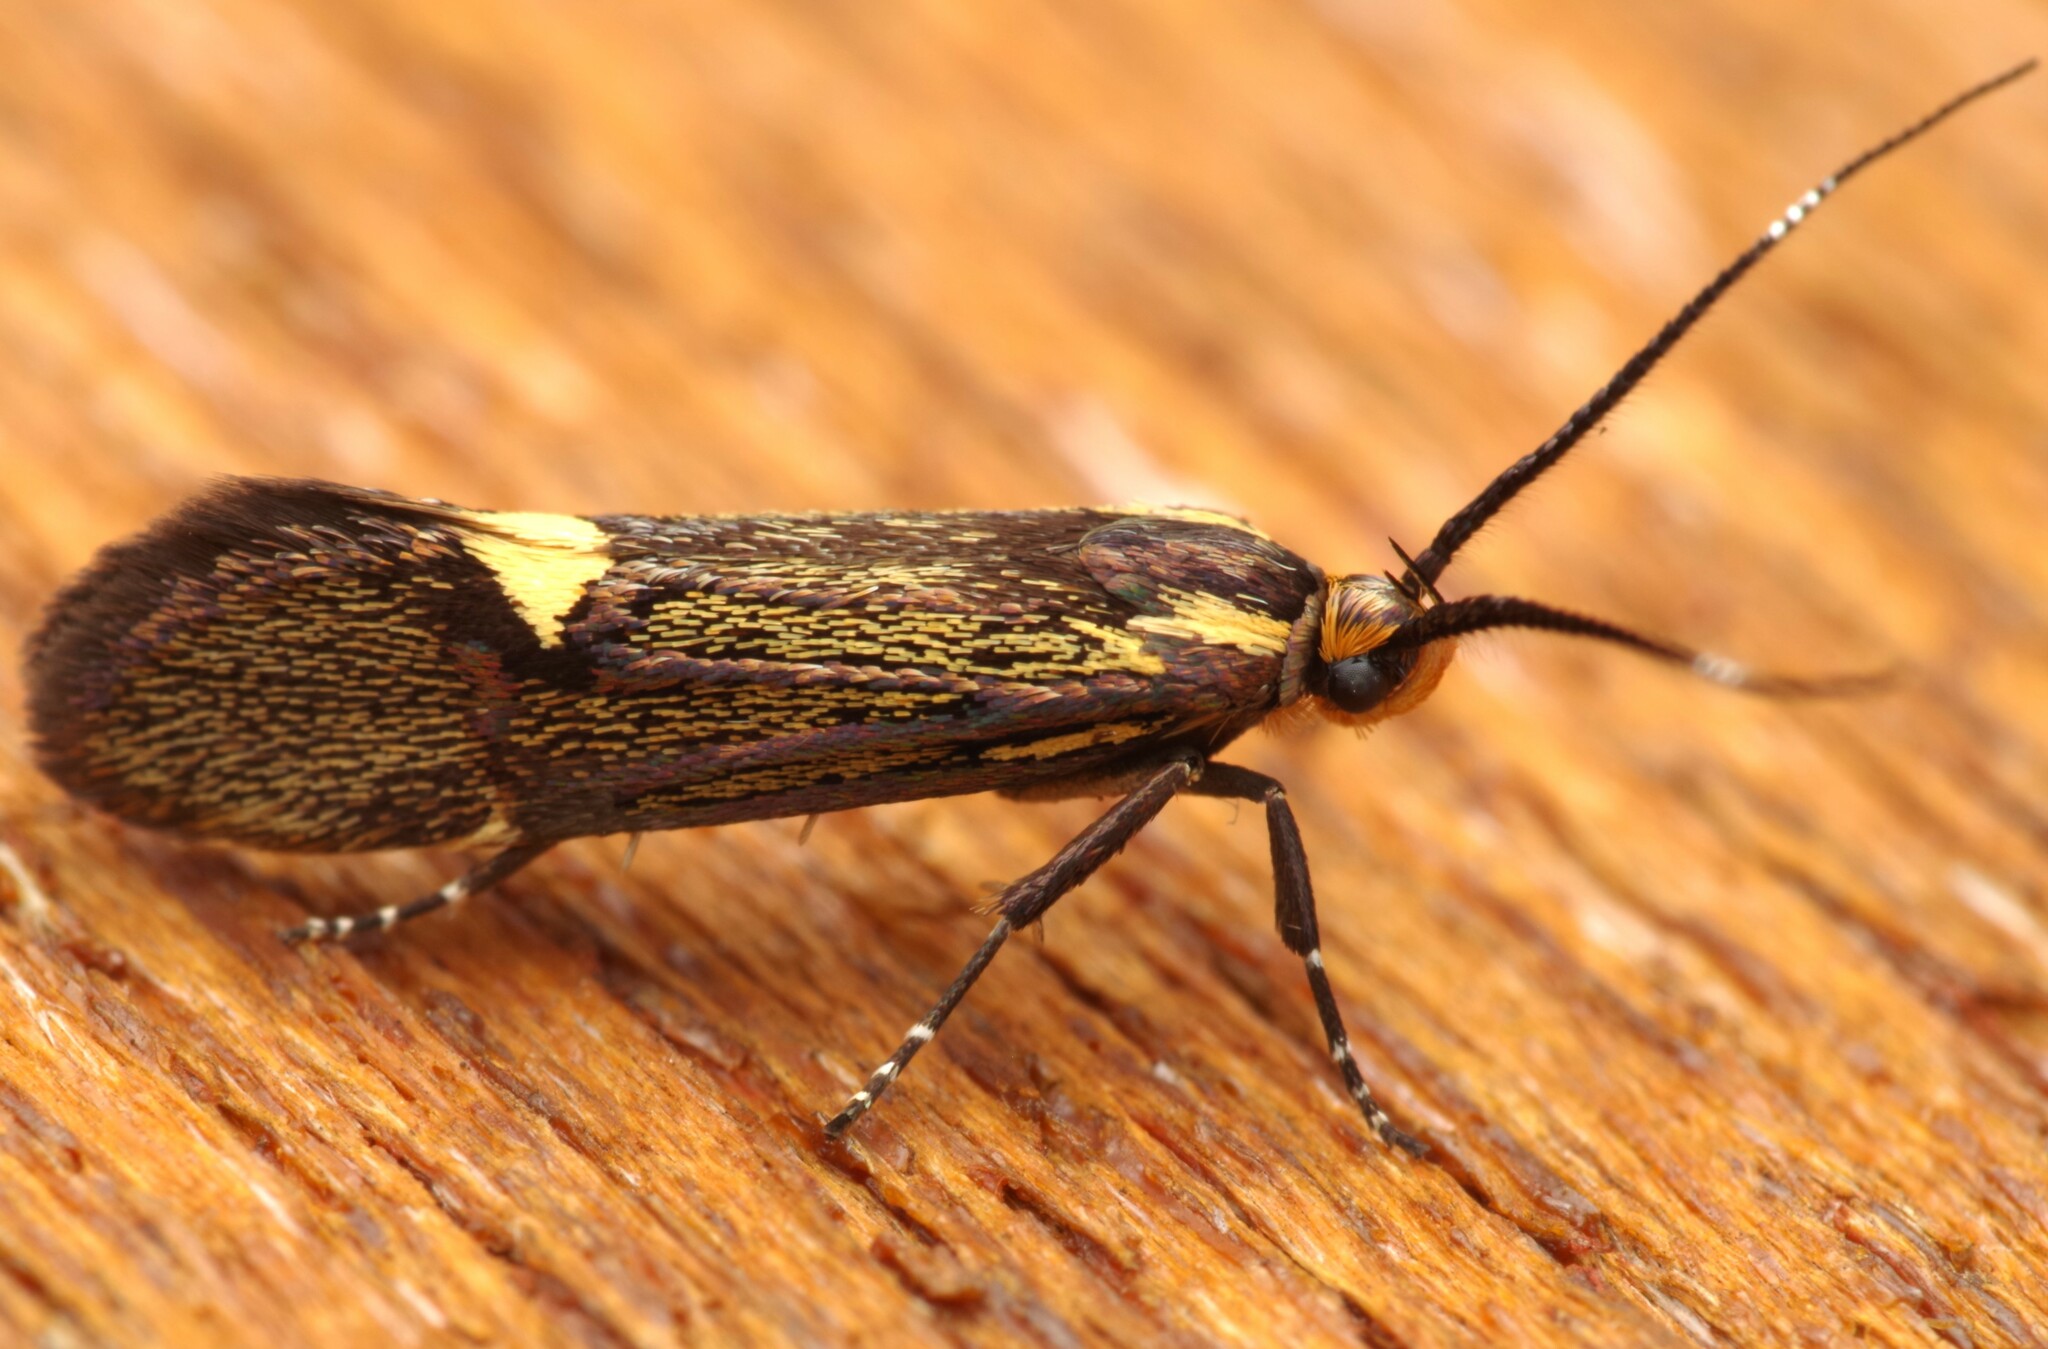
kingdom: Animalia
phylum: Arthropoda
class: Insecta
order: Lepidoptera
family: Oecophoridae
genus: Dafa
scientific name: Dafa Esperia sulphurella
